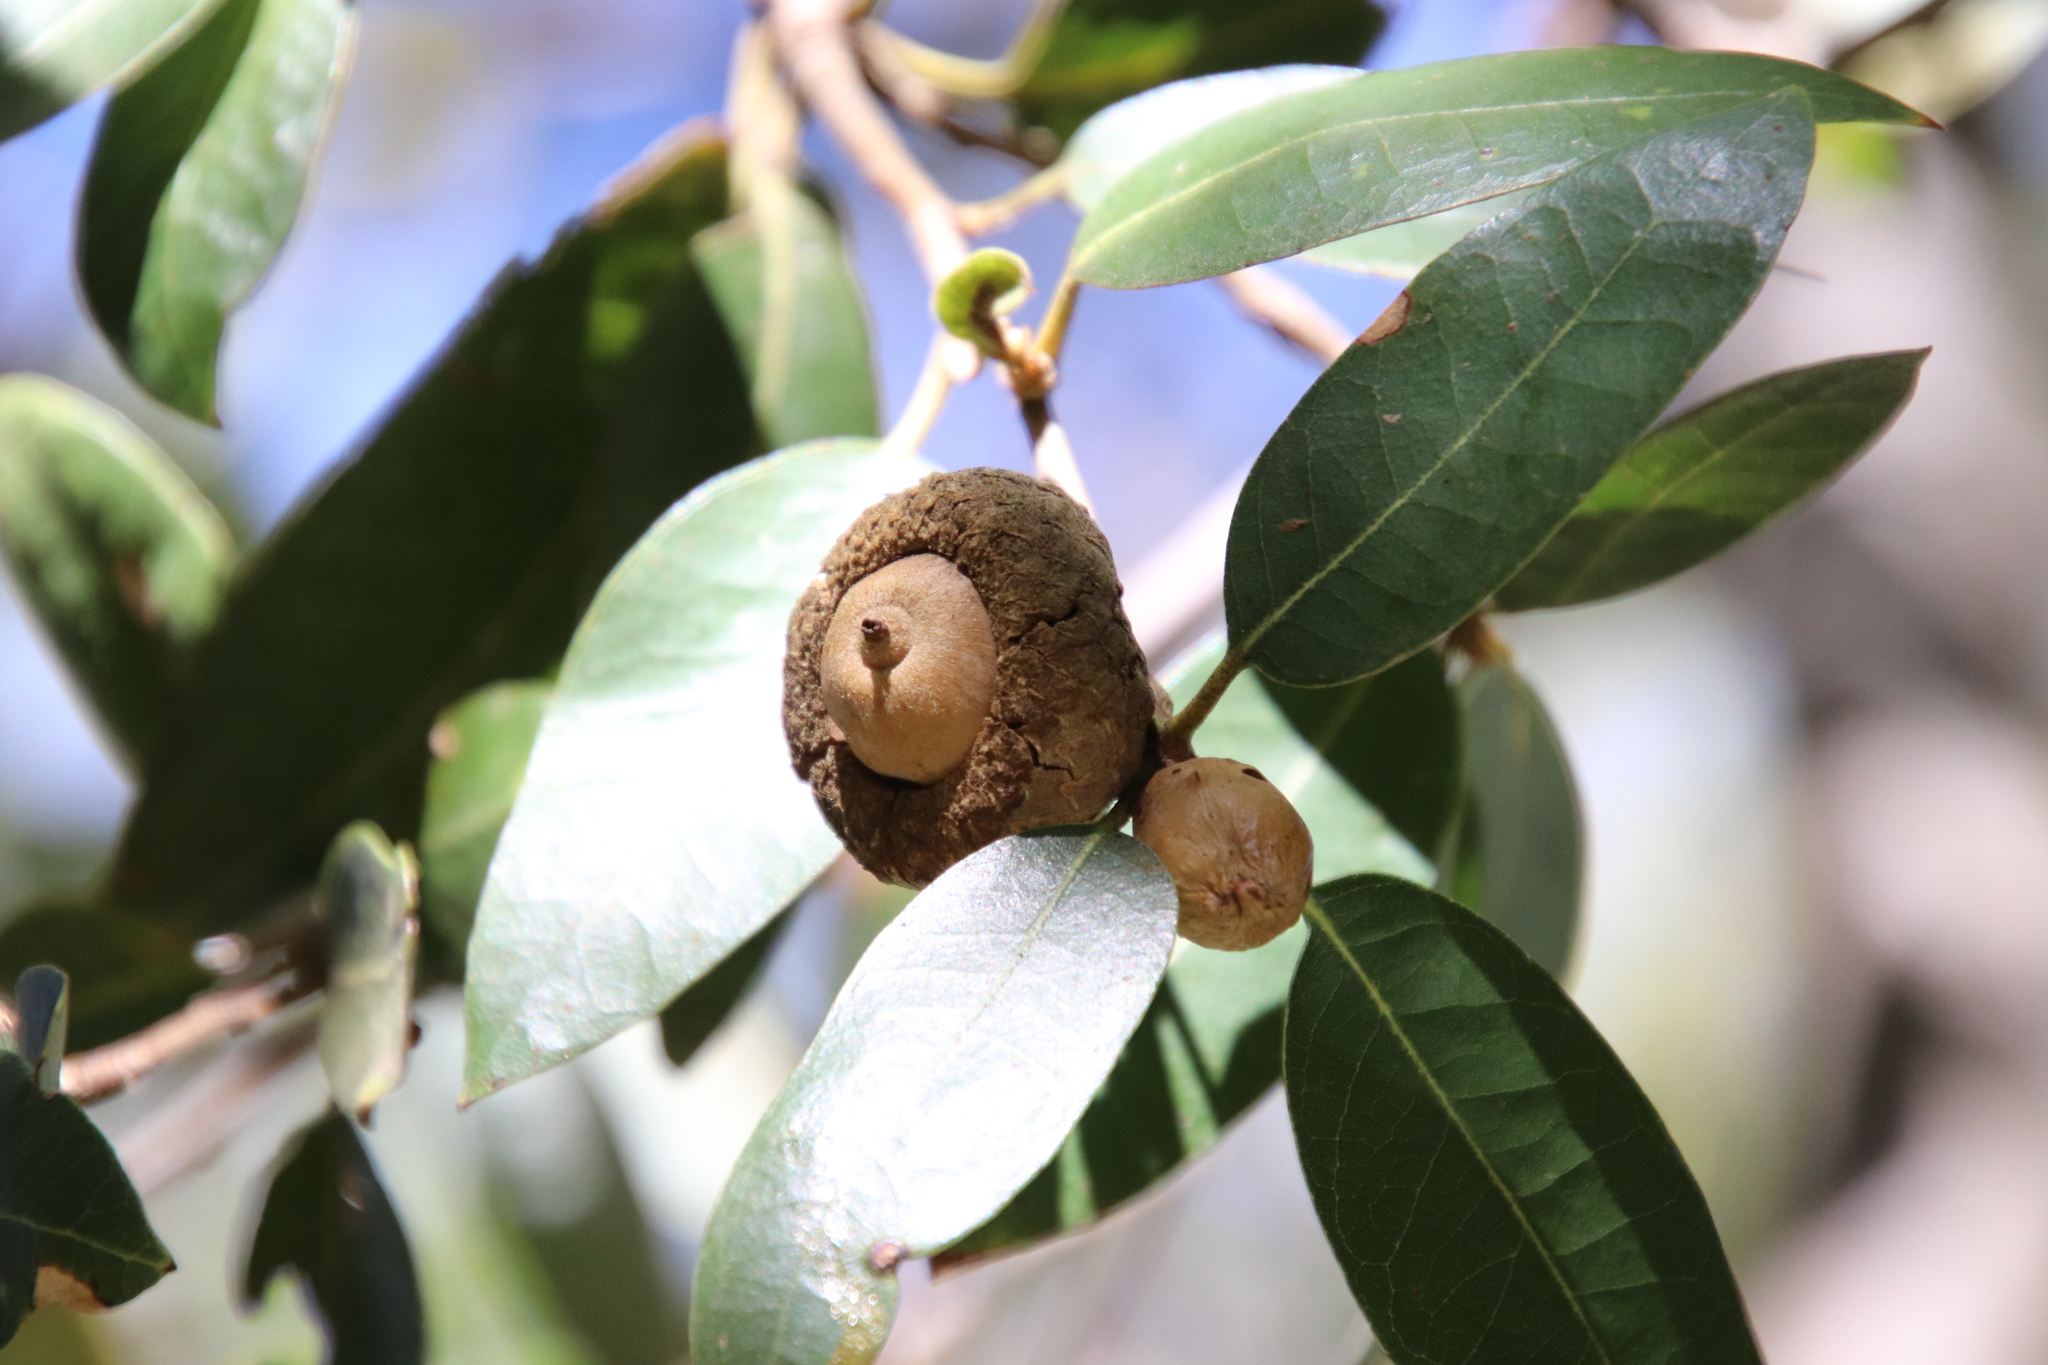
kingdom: Plantae
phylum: Tracheophyta
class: Magnoliopsida
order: Fagales
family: Fagaceae
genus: Quercus
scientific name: Quercus chrysolepis
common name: Canyon live oak
